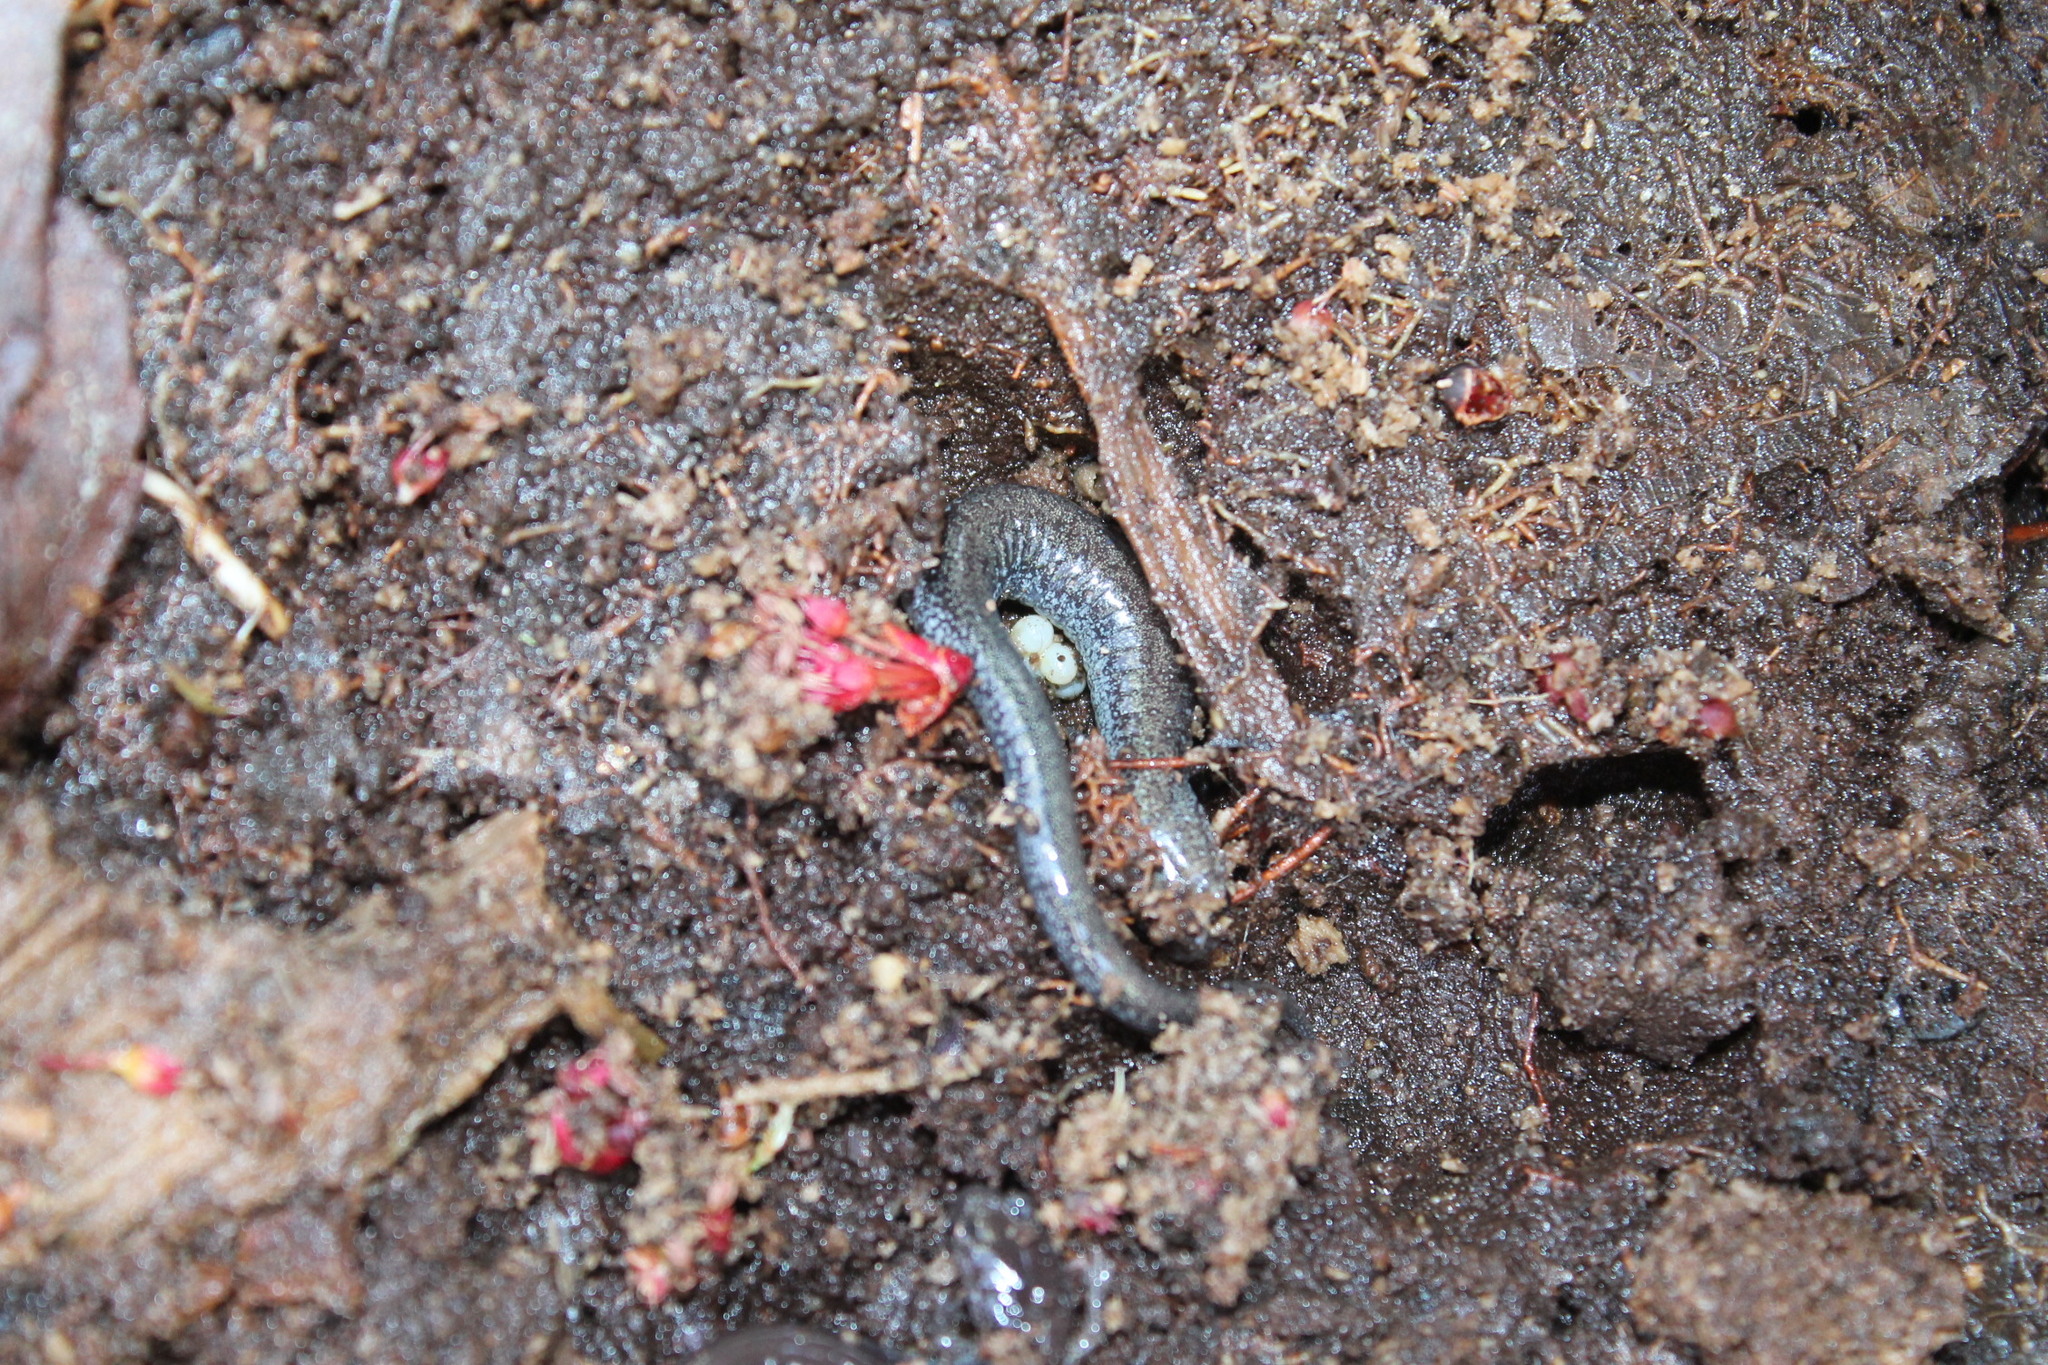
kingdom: Animalia
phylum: Chordata
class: Amphibia
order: Caudata
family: Plethodontidae
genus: Plethodon
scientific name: Plethodon cinereus
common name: Redback salamander
